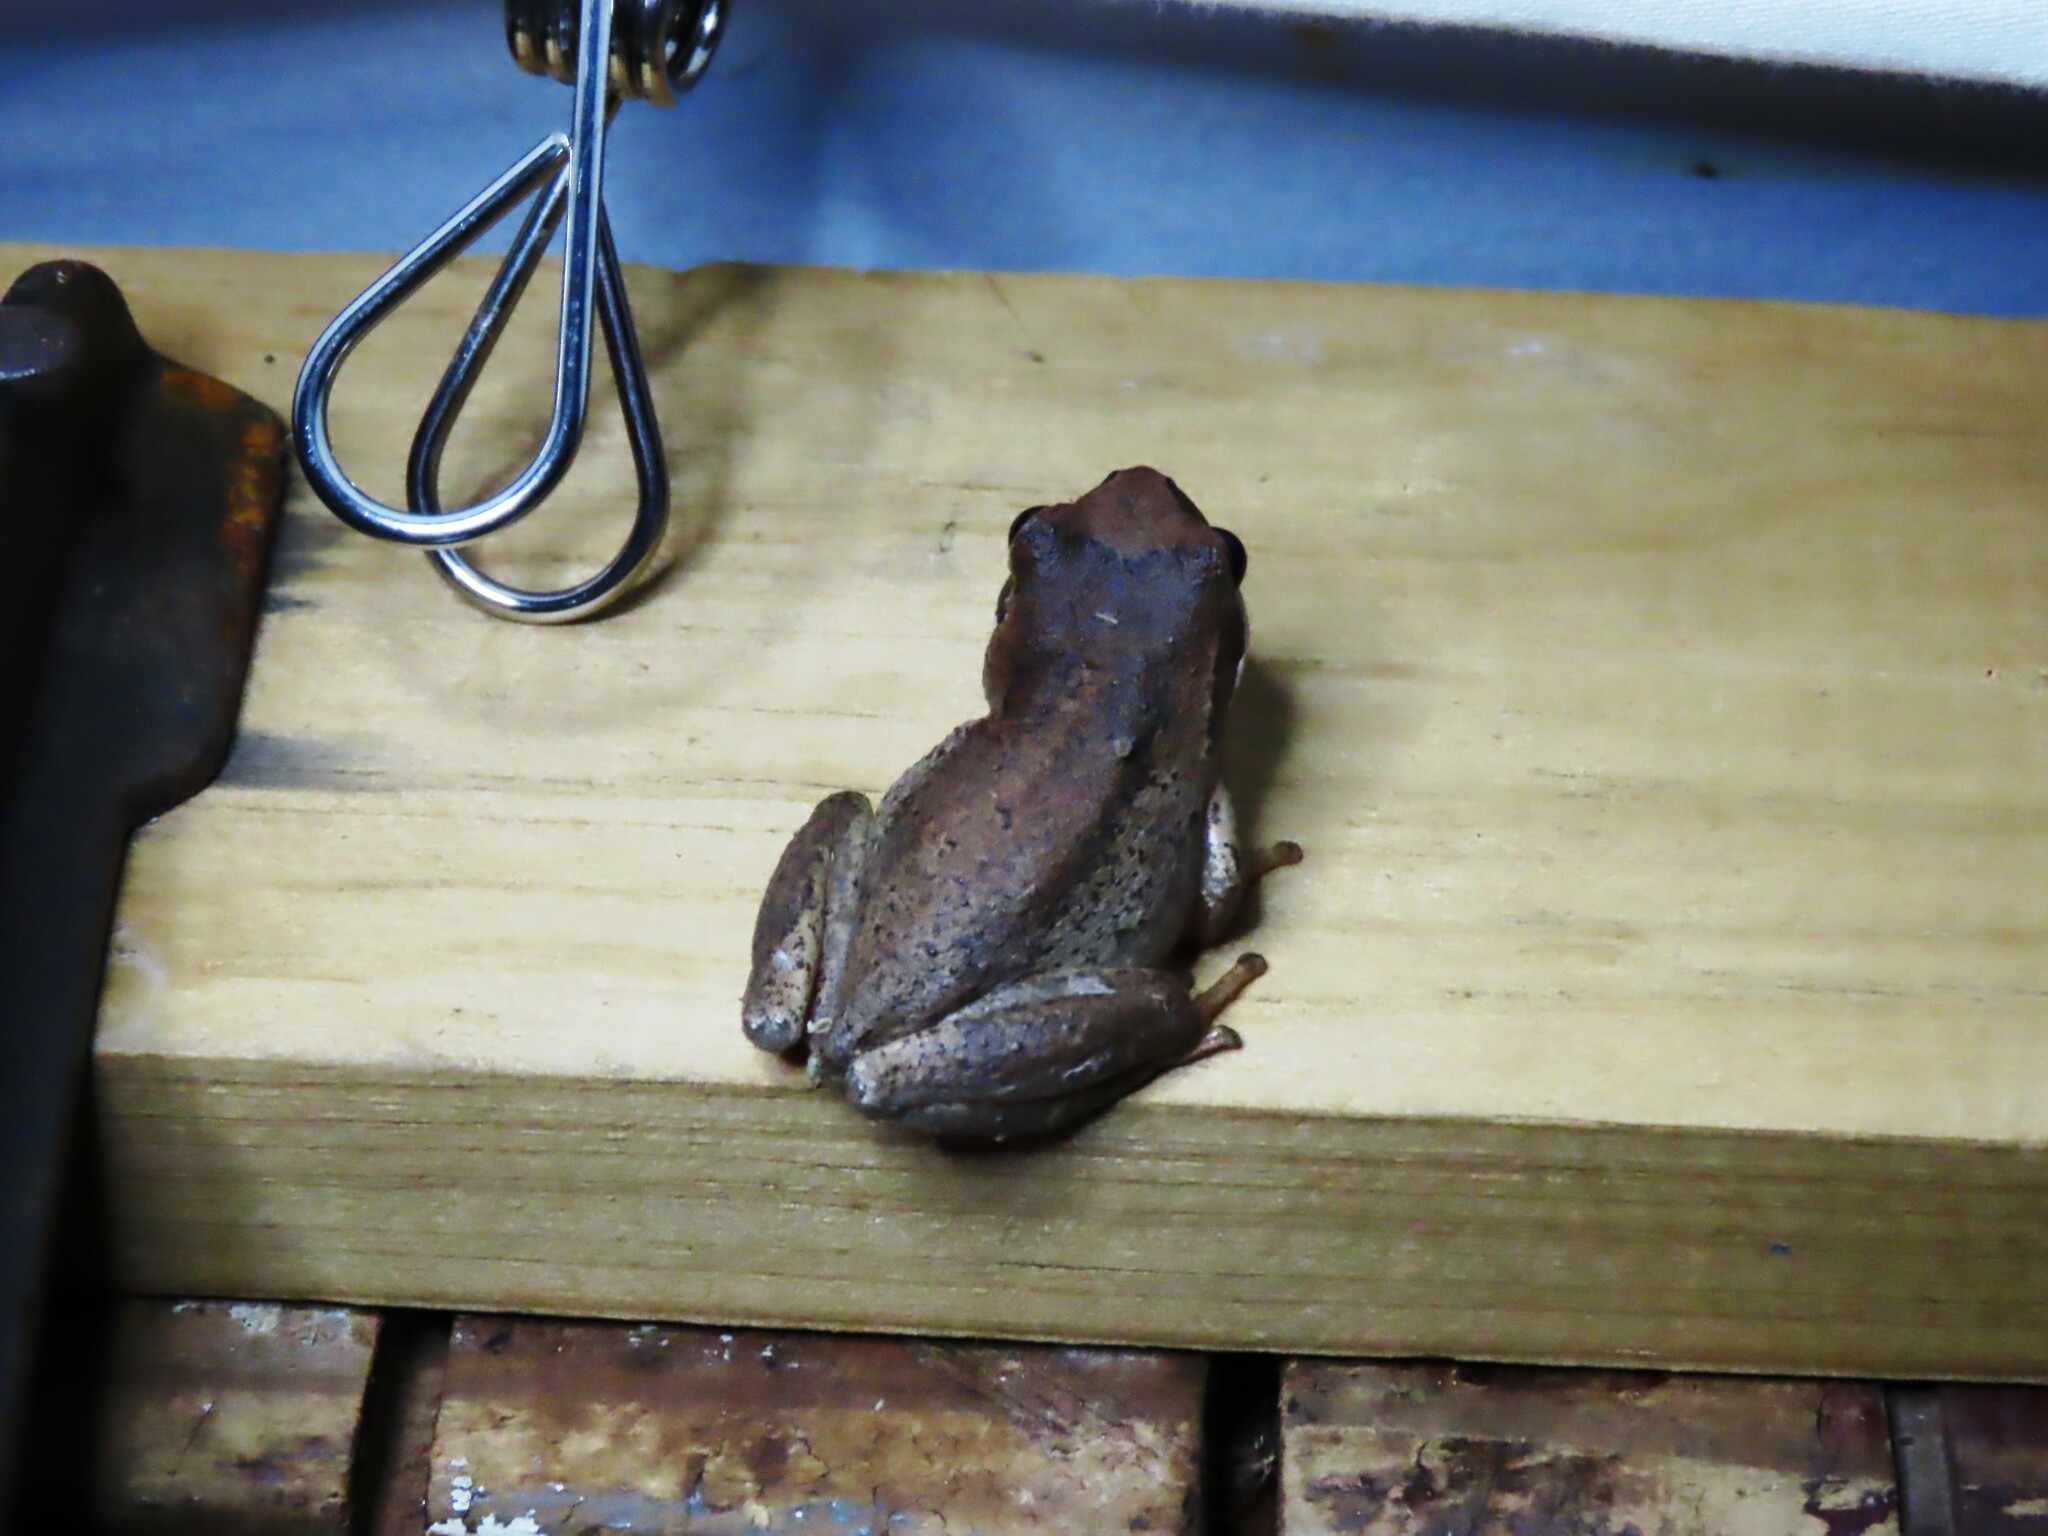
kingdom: Animalia
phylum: Chordata
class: Amphibia
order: Anura
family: Pelodryadidae
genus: Litoria
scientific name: Litoria ewingii
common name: Southern brown tree frog
